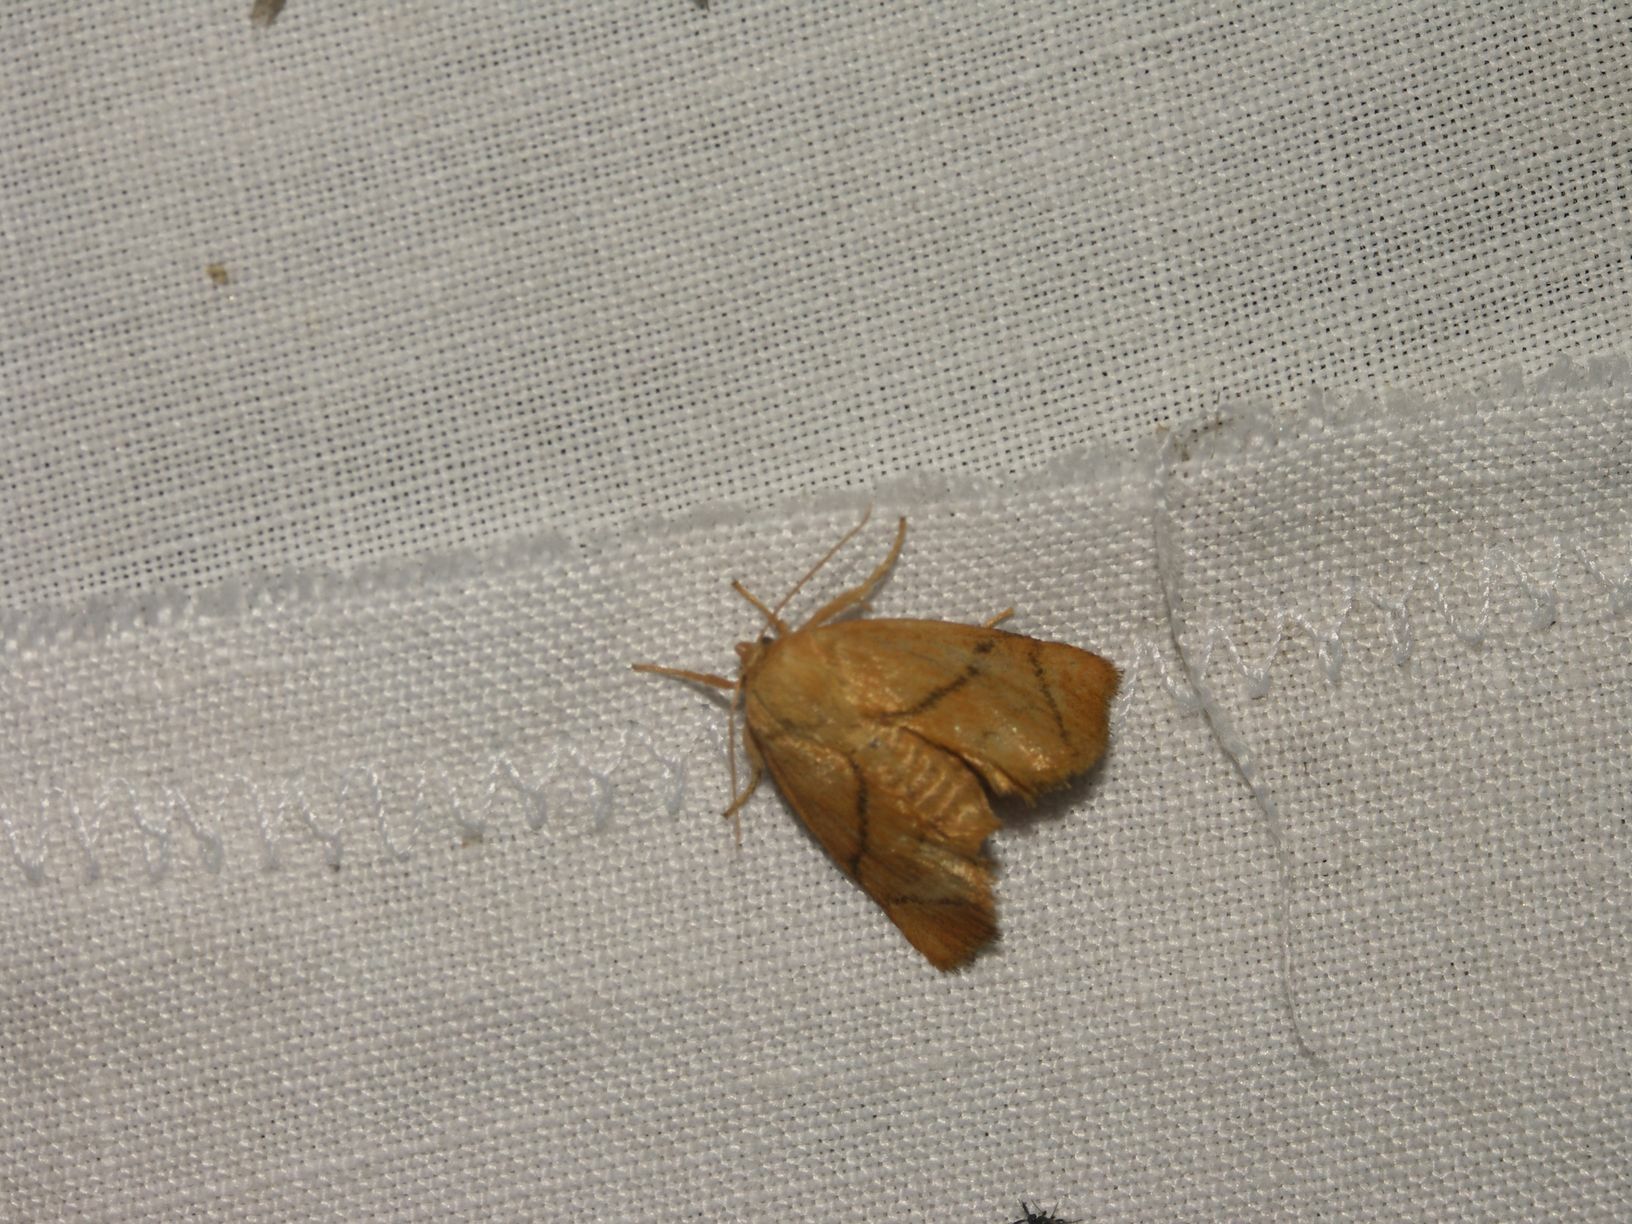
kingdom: Animalia
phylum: Arthropoda
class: Insecta
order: Lepidoptera
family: Limacodidae
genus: Apoda
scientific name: Apoda limacodes
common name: Festoon
